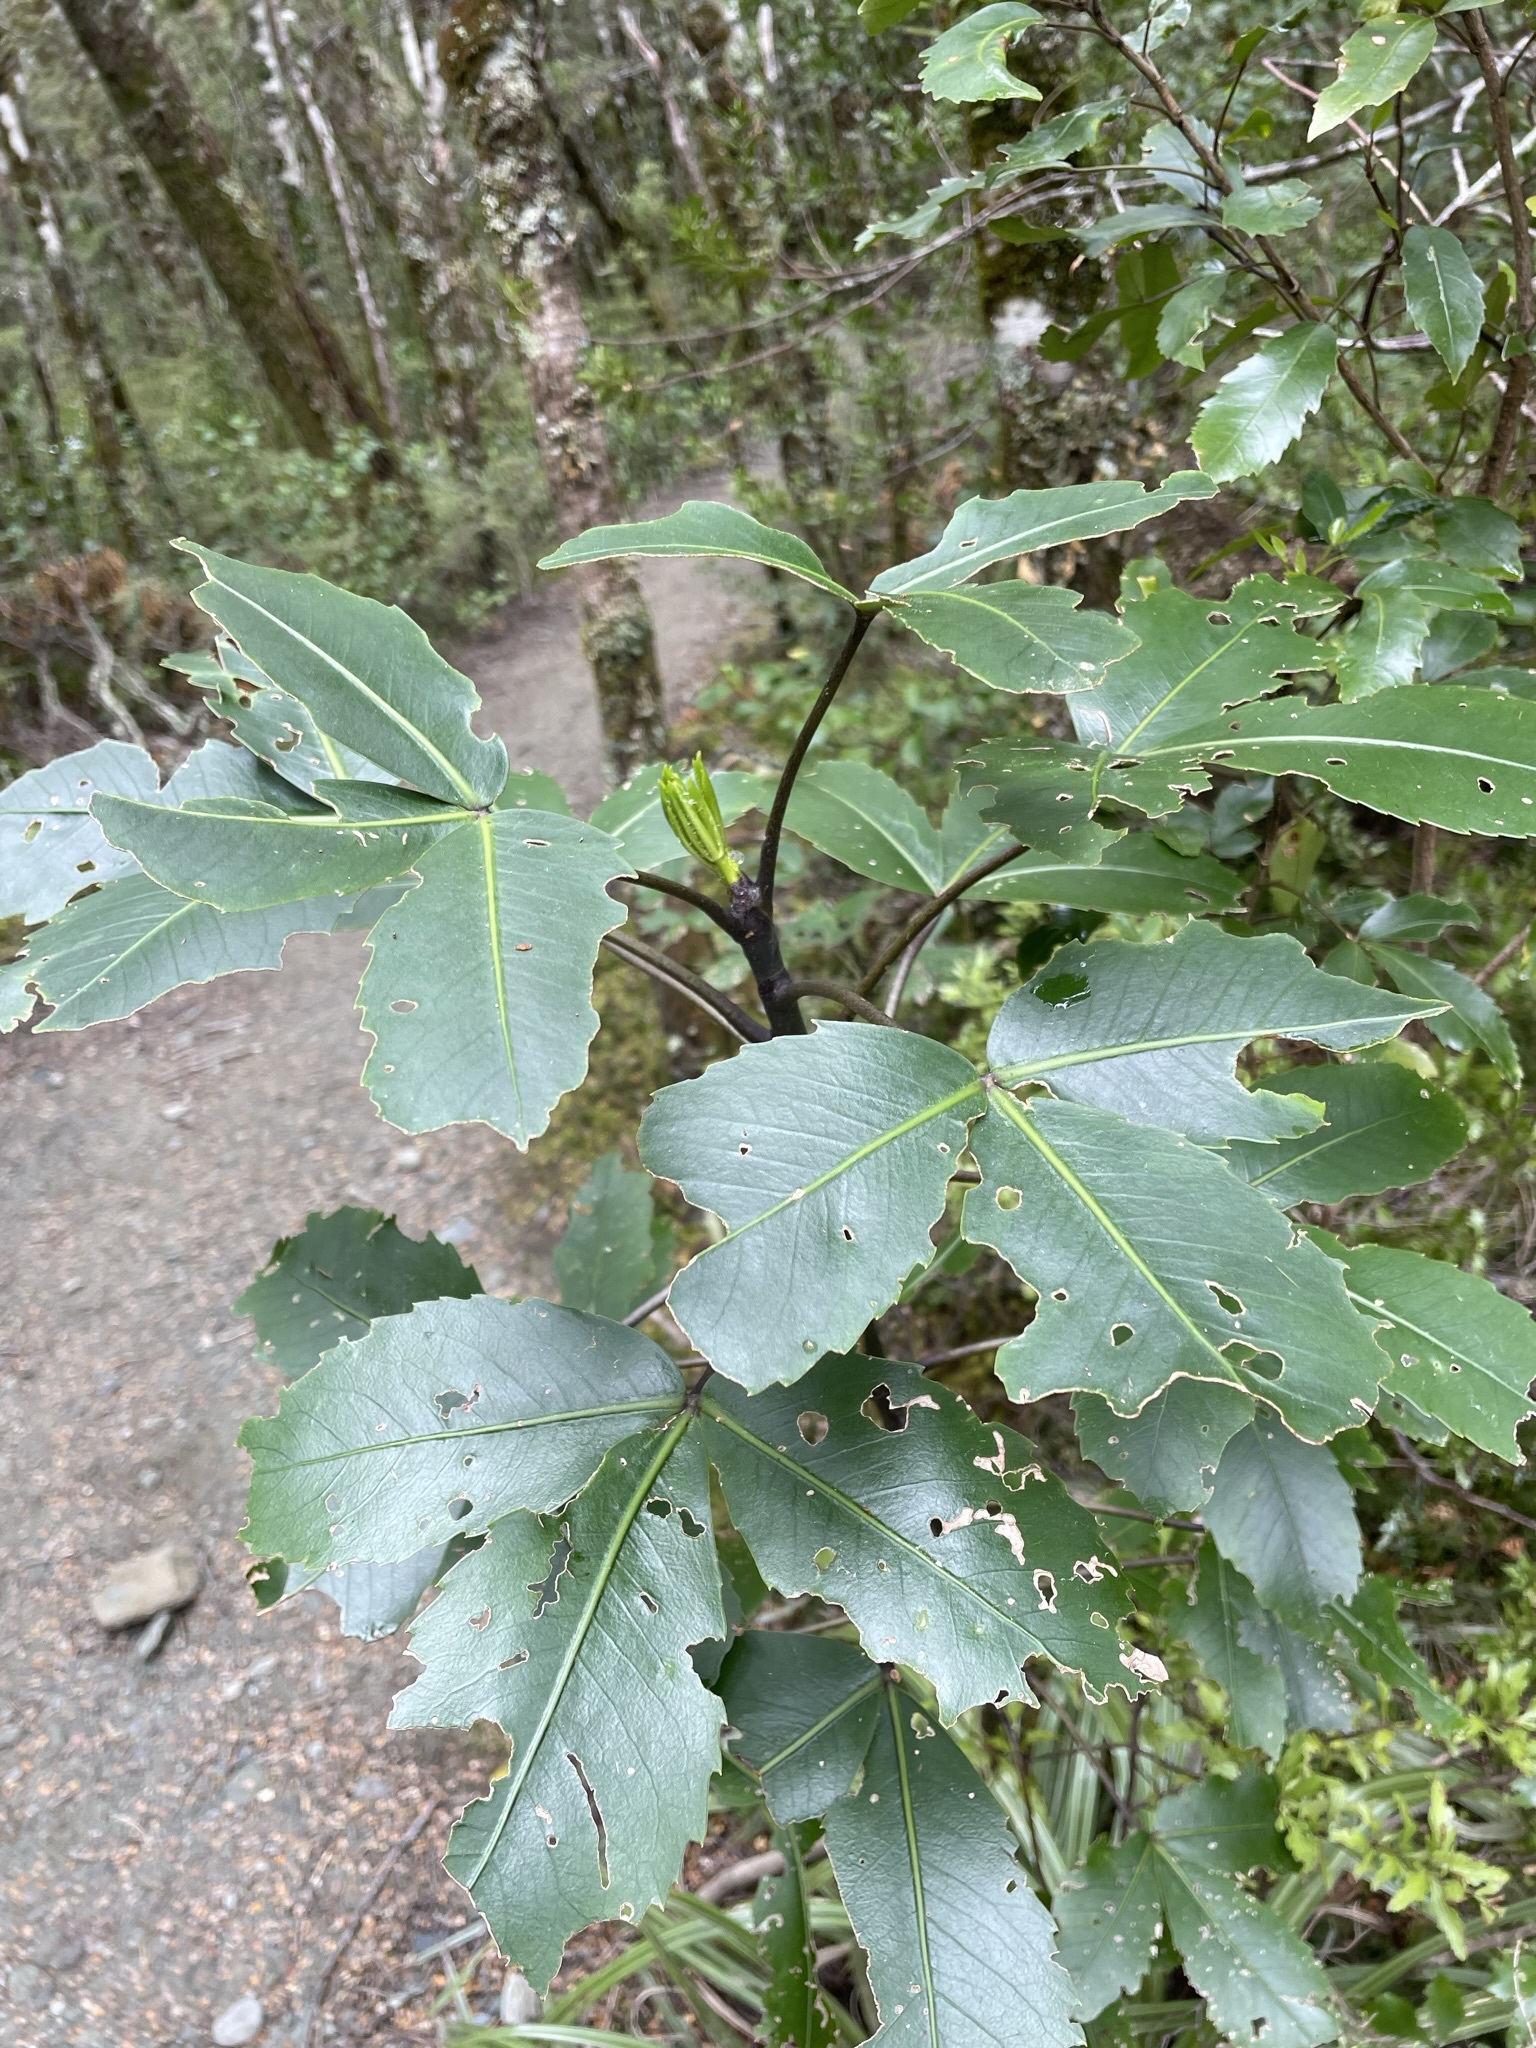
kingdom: Plantae
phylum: Tracheophyta
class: Magnoliopsida
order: Apiales
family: Araliaceae
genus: Neopanax
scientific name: Neopanax colensoi
